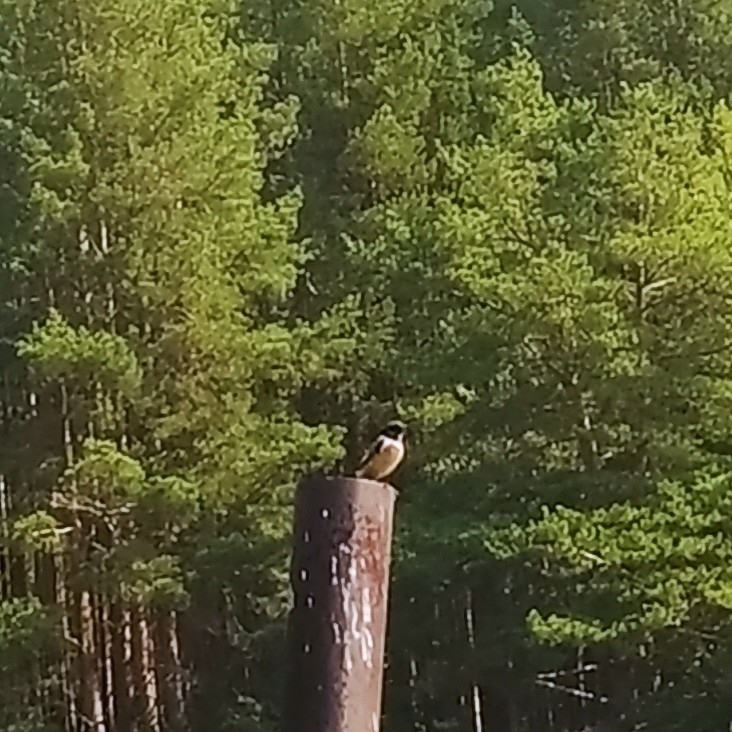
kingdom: Animalia
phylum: Chordata
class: Aves
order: Passeriformes
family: Muscicapidae
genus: Saxicola
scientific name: Saxicola maurus
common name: Siberian stonechat
